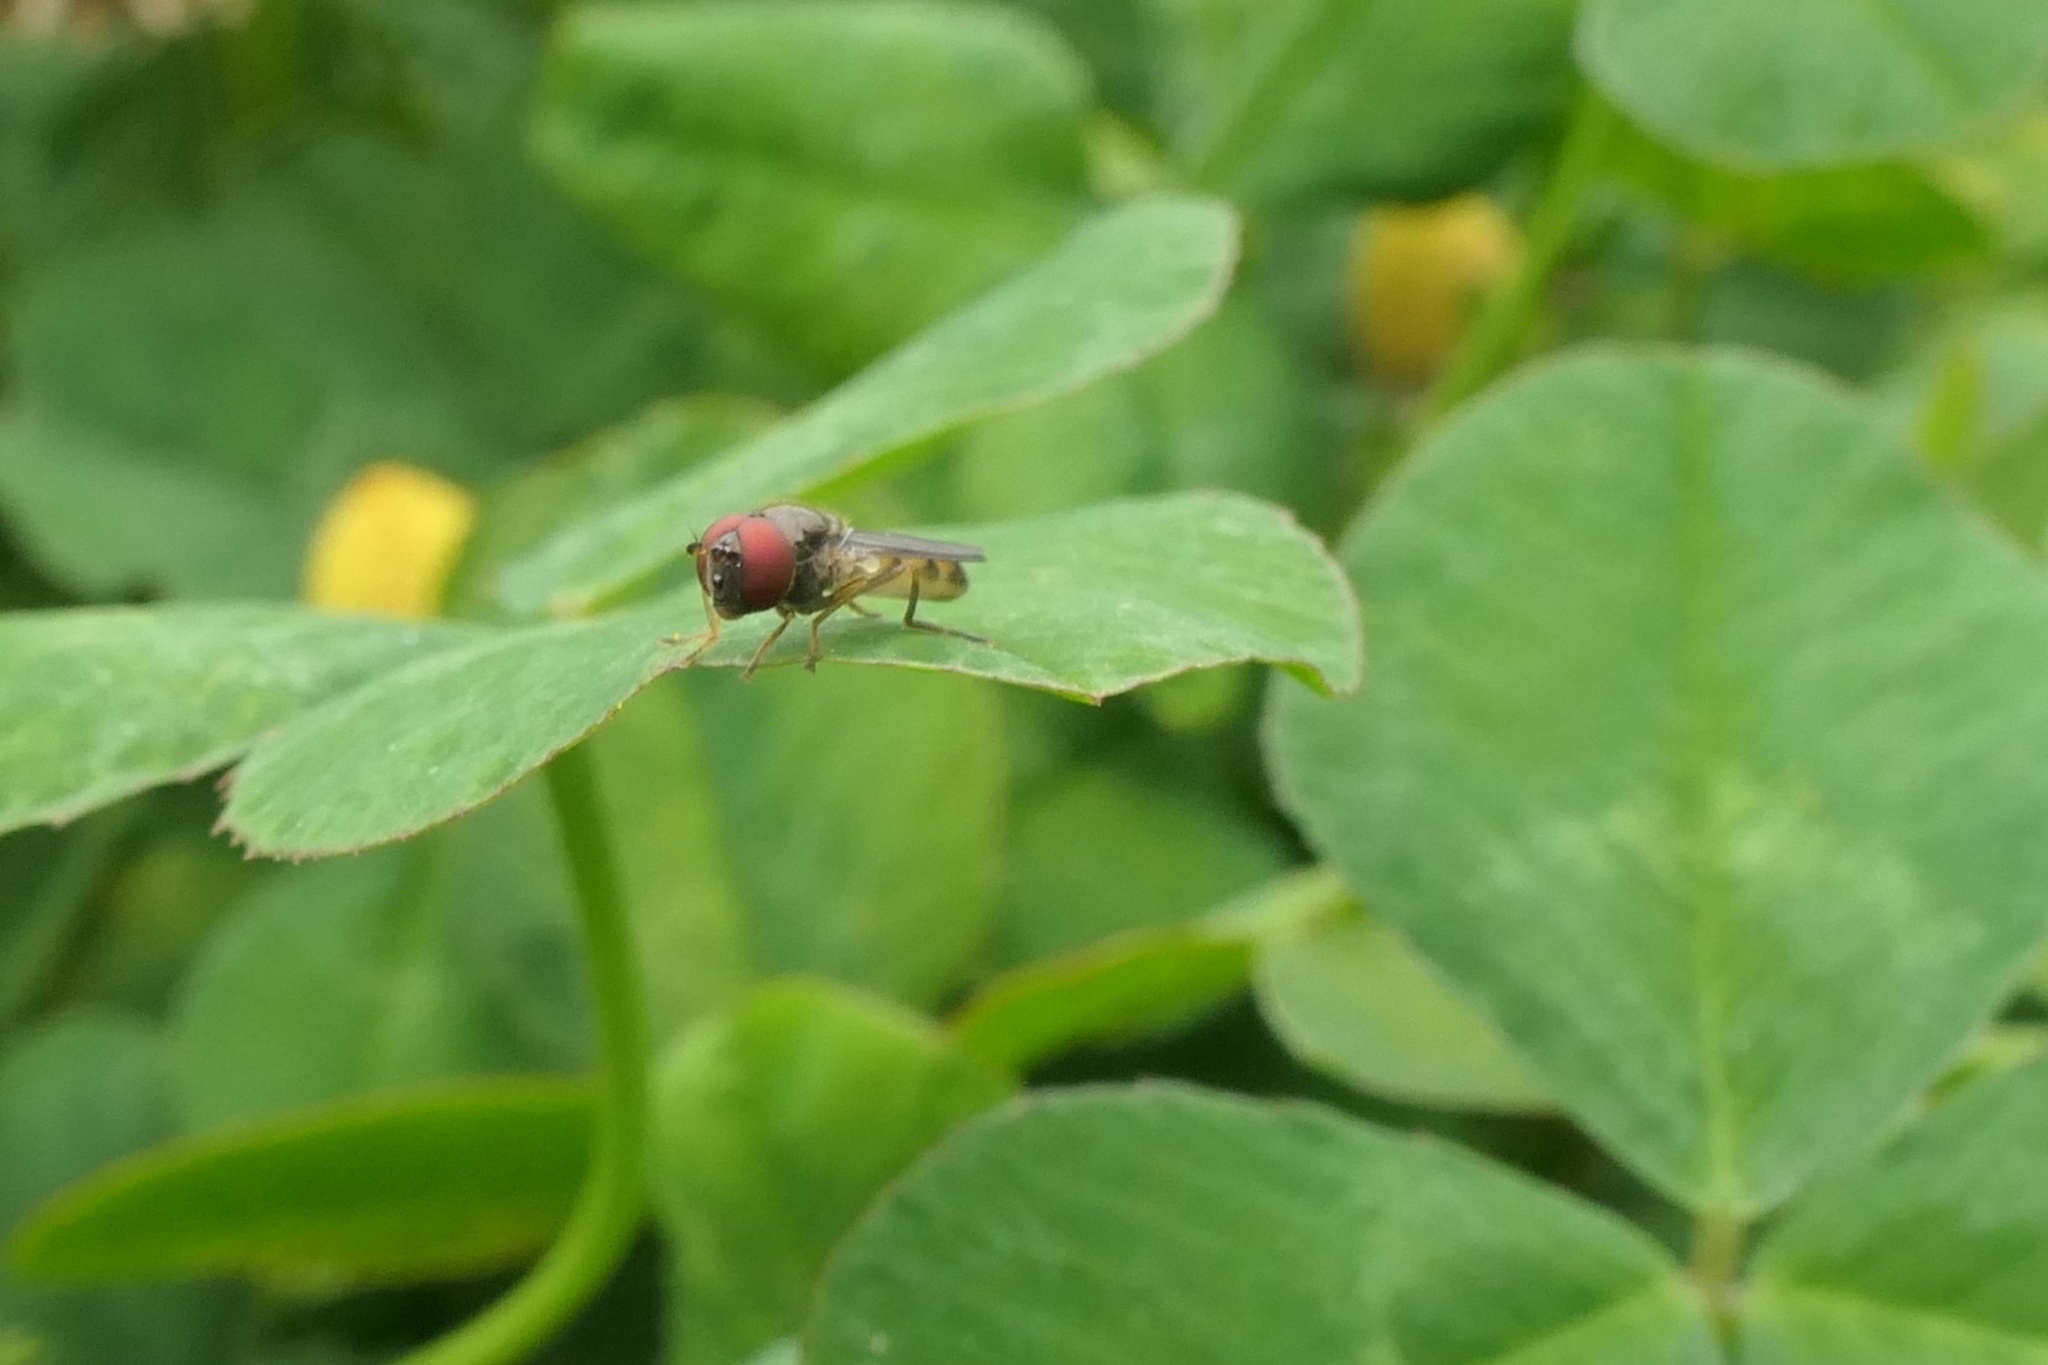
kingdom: Animalia
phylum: Arthropoda
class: Insecta
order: Diptera
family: Syrphidae
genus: Melanostoma
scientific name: Melanostoma fasciatum
